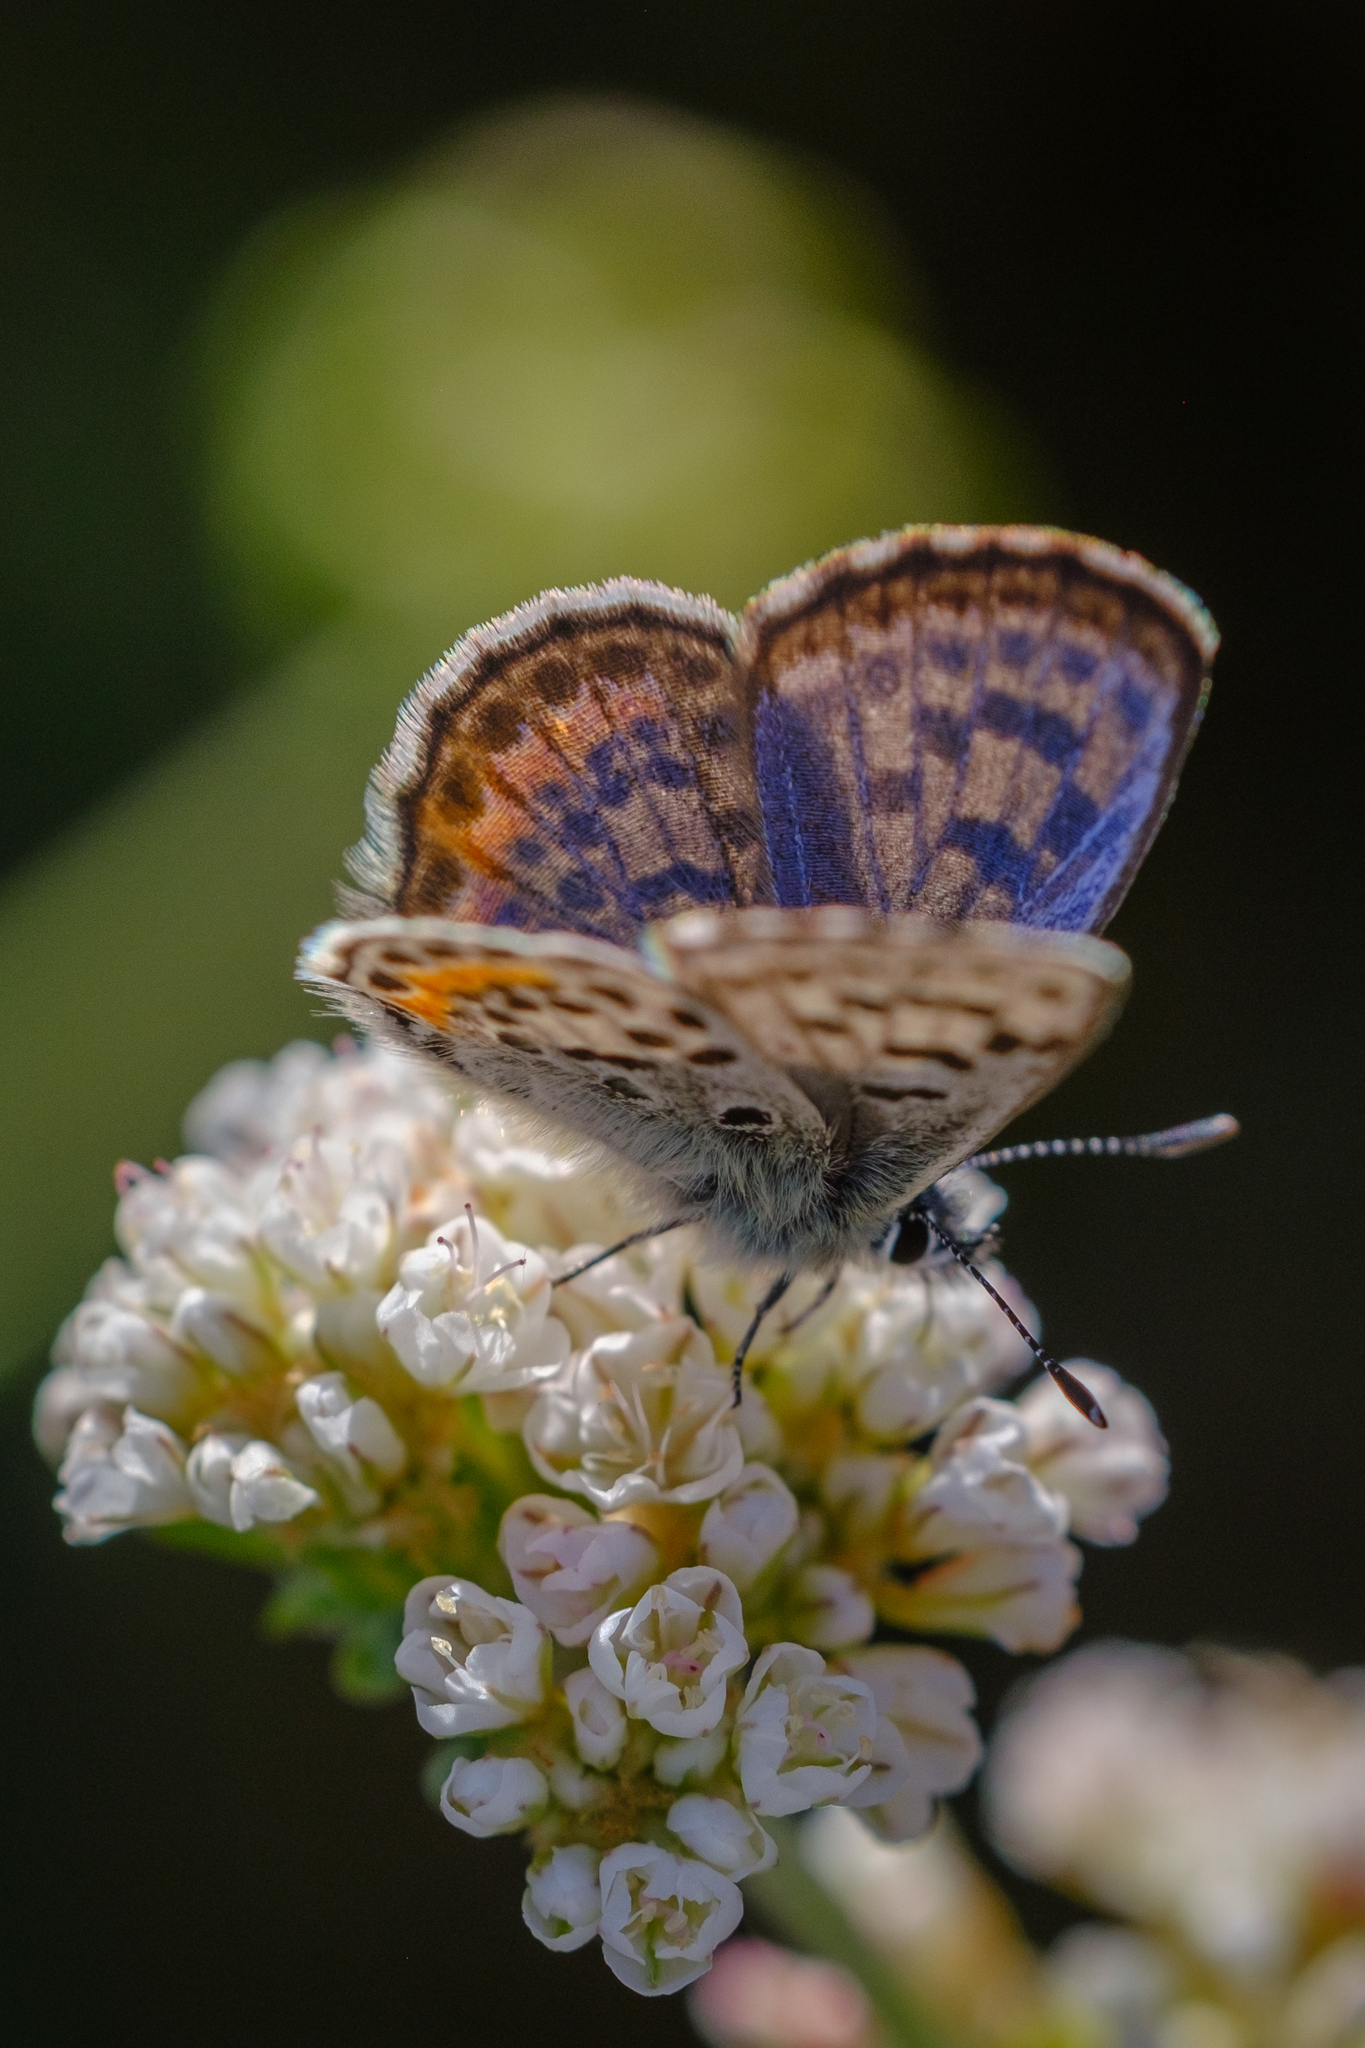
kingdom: Animalia
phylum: Arthropoda
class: Insecta
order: Lepidoptera
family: Lycaenidae
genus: Euphilotes
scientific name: Euphilotes battoides
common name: Square-spotted blue
